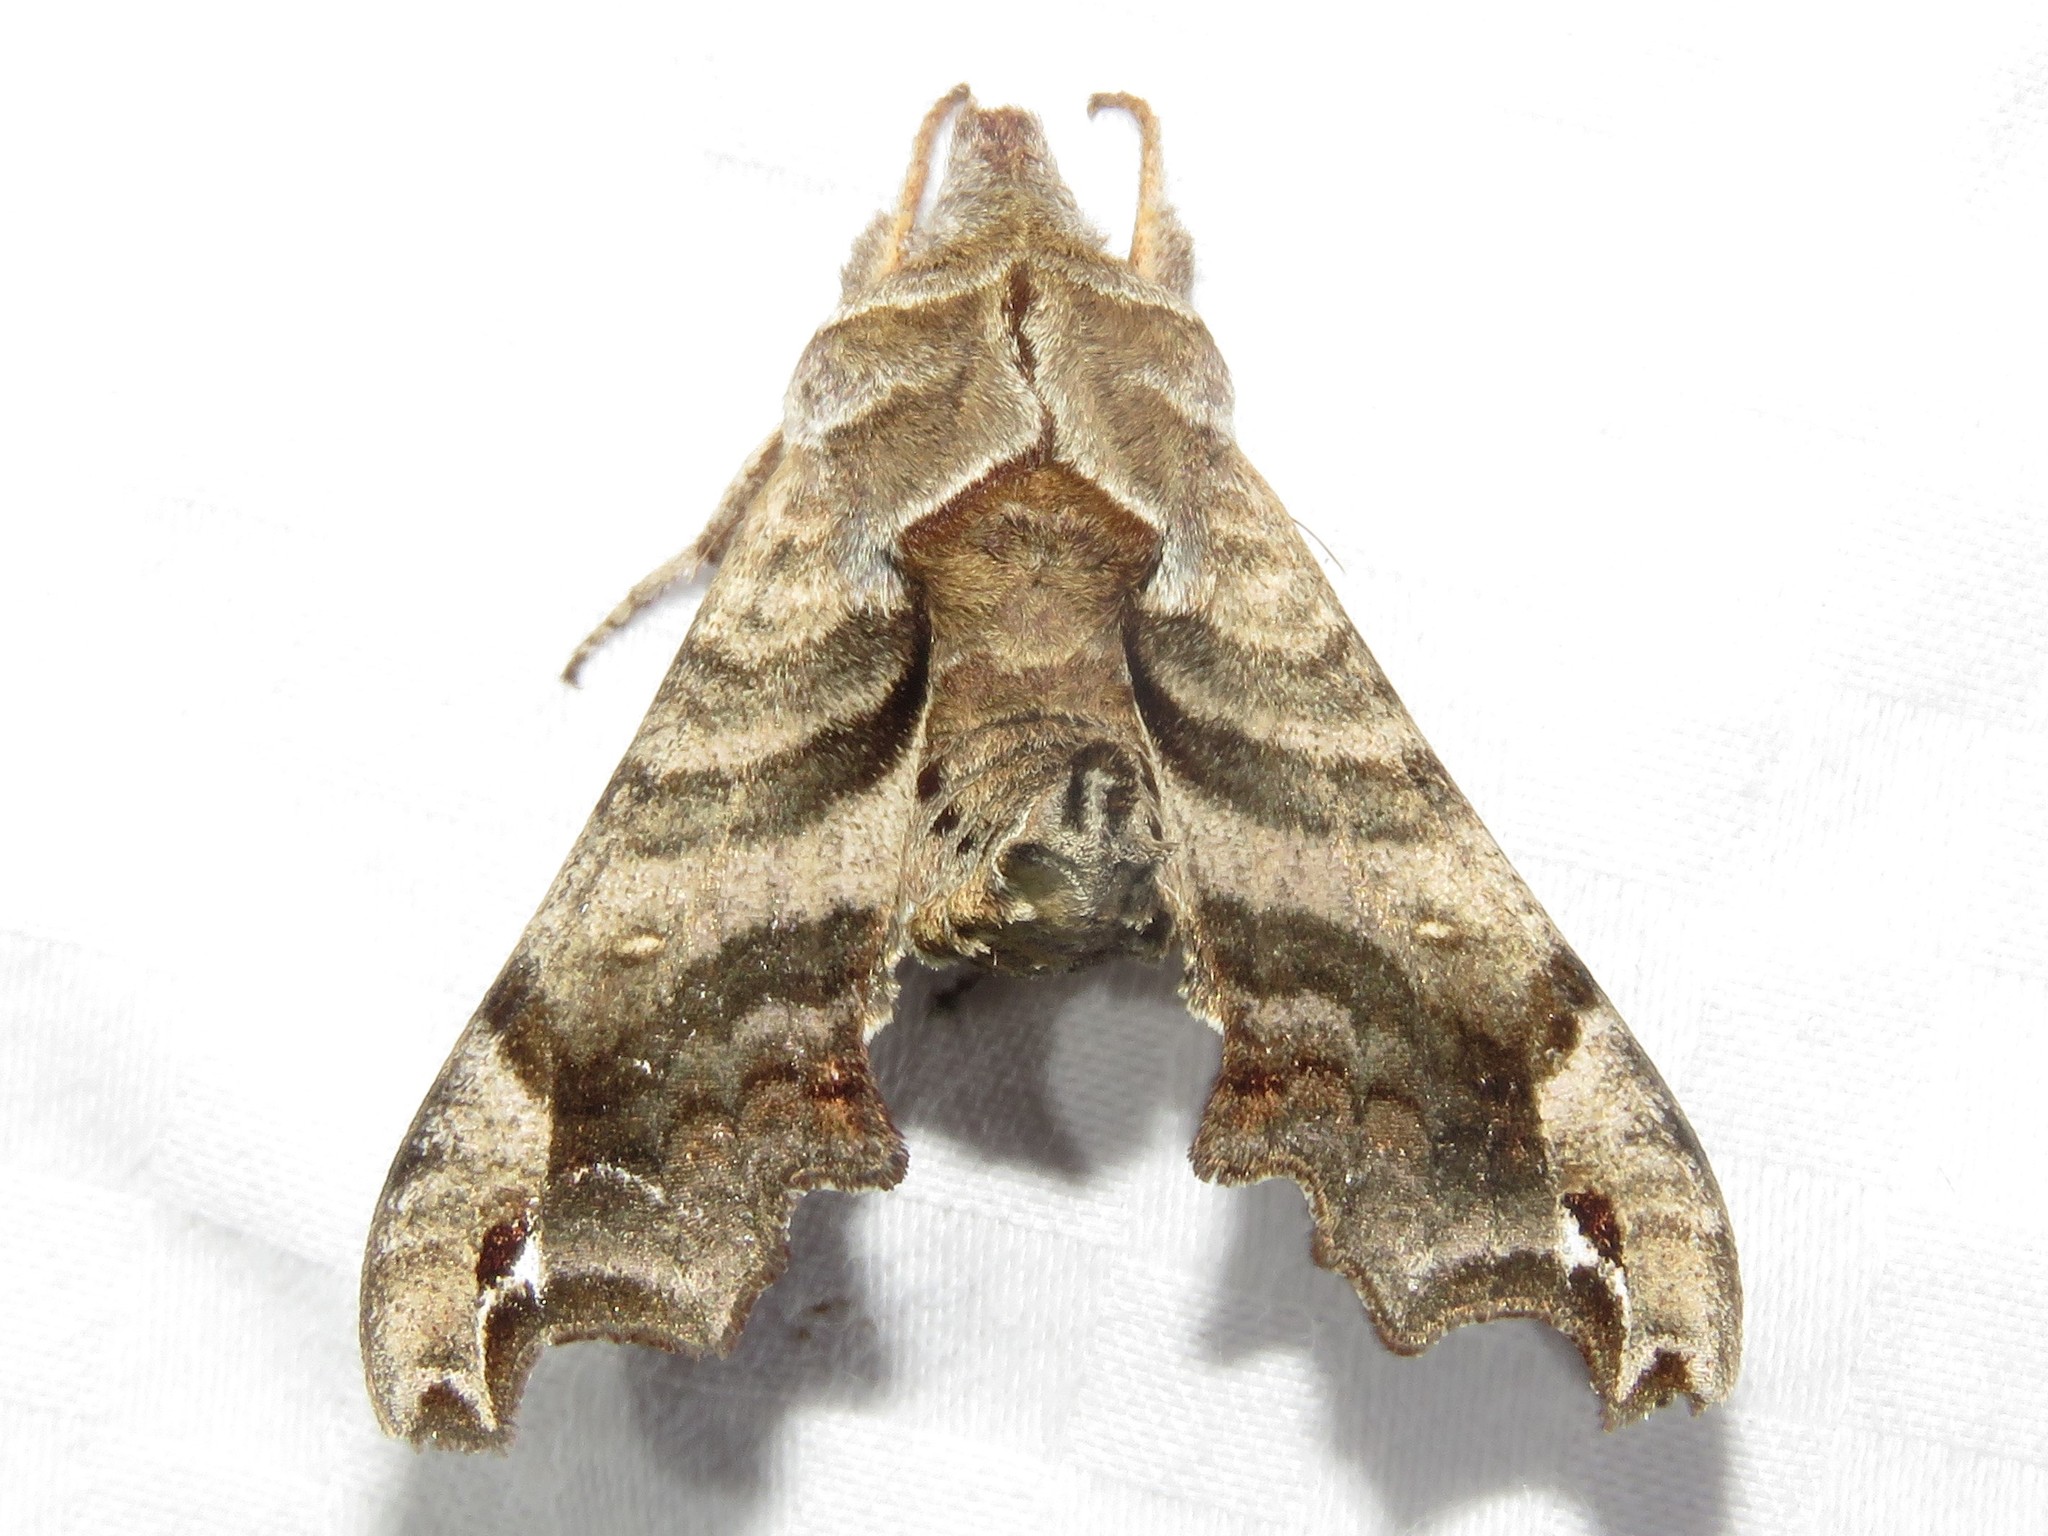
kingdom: Animalia
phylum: Arthropoda
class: Insecta
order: Lepidoptera
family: Sphingidae
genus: Deidamia
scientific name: Deidamia inscriptum
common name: Lettered sphinx
